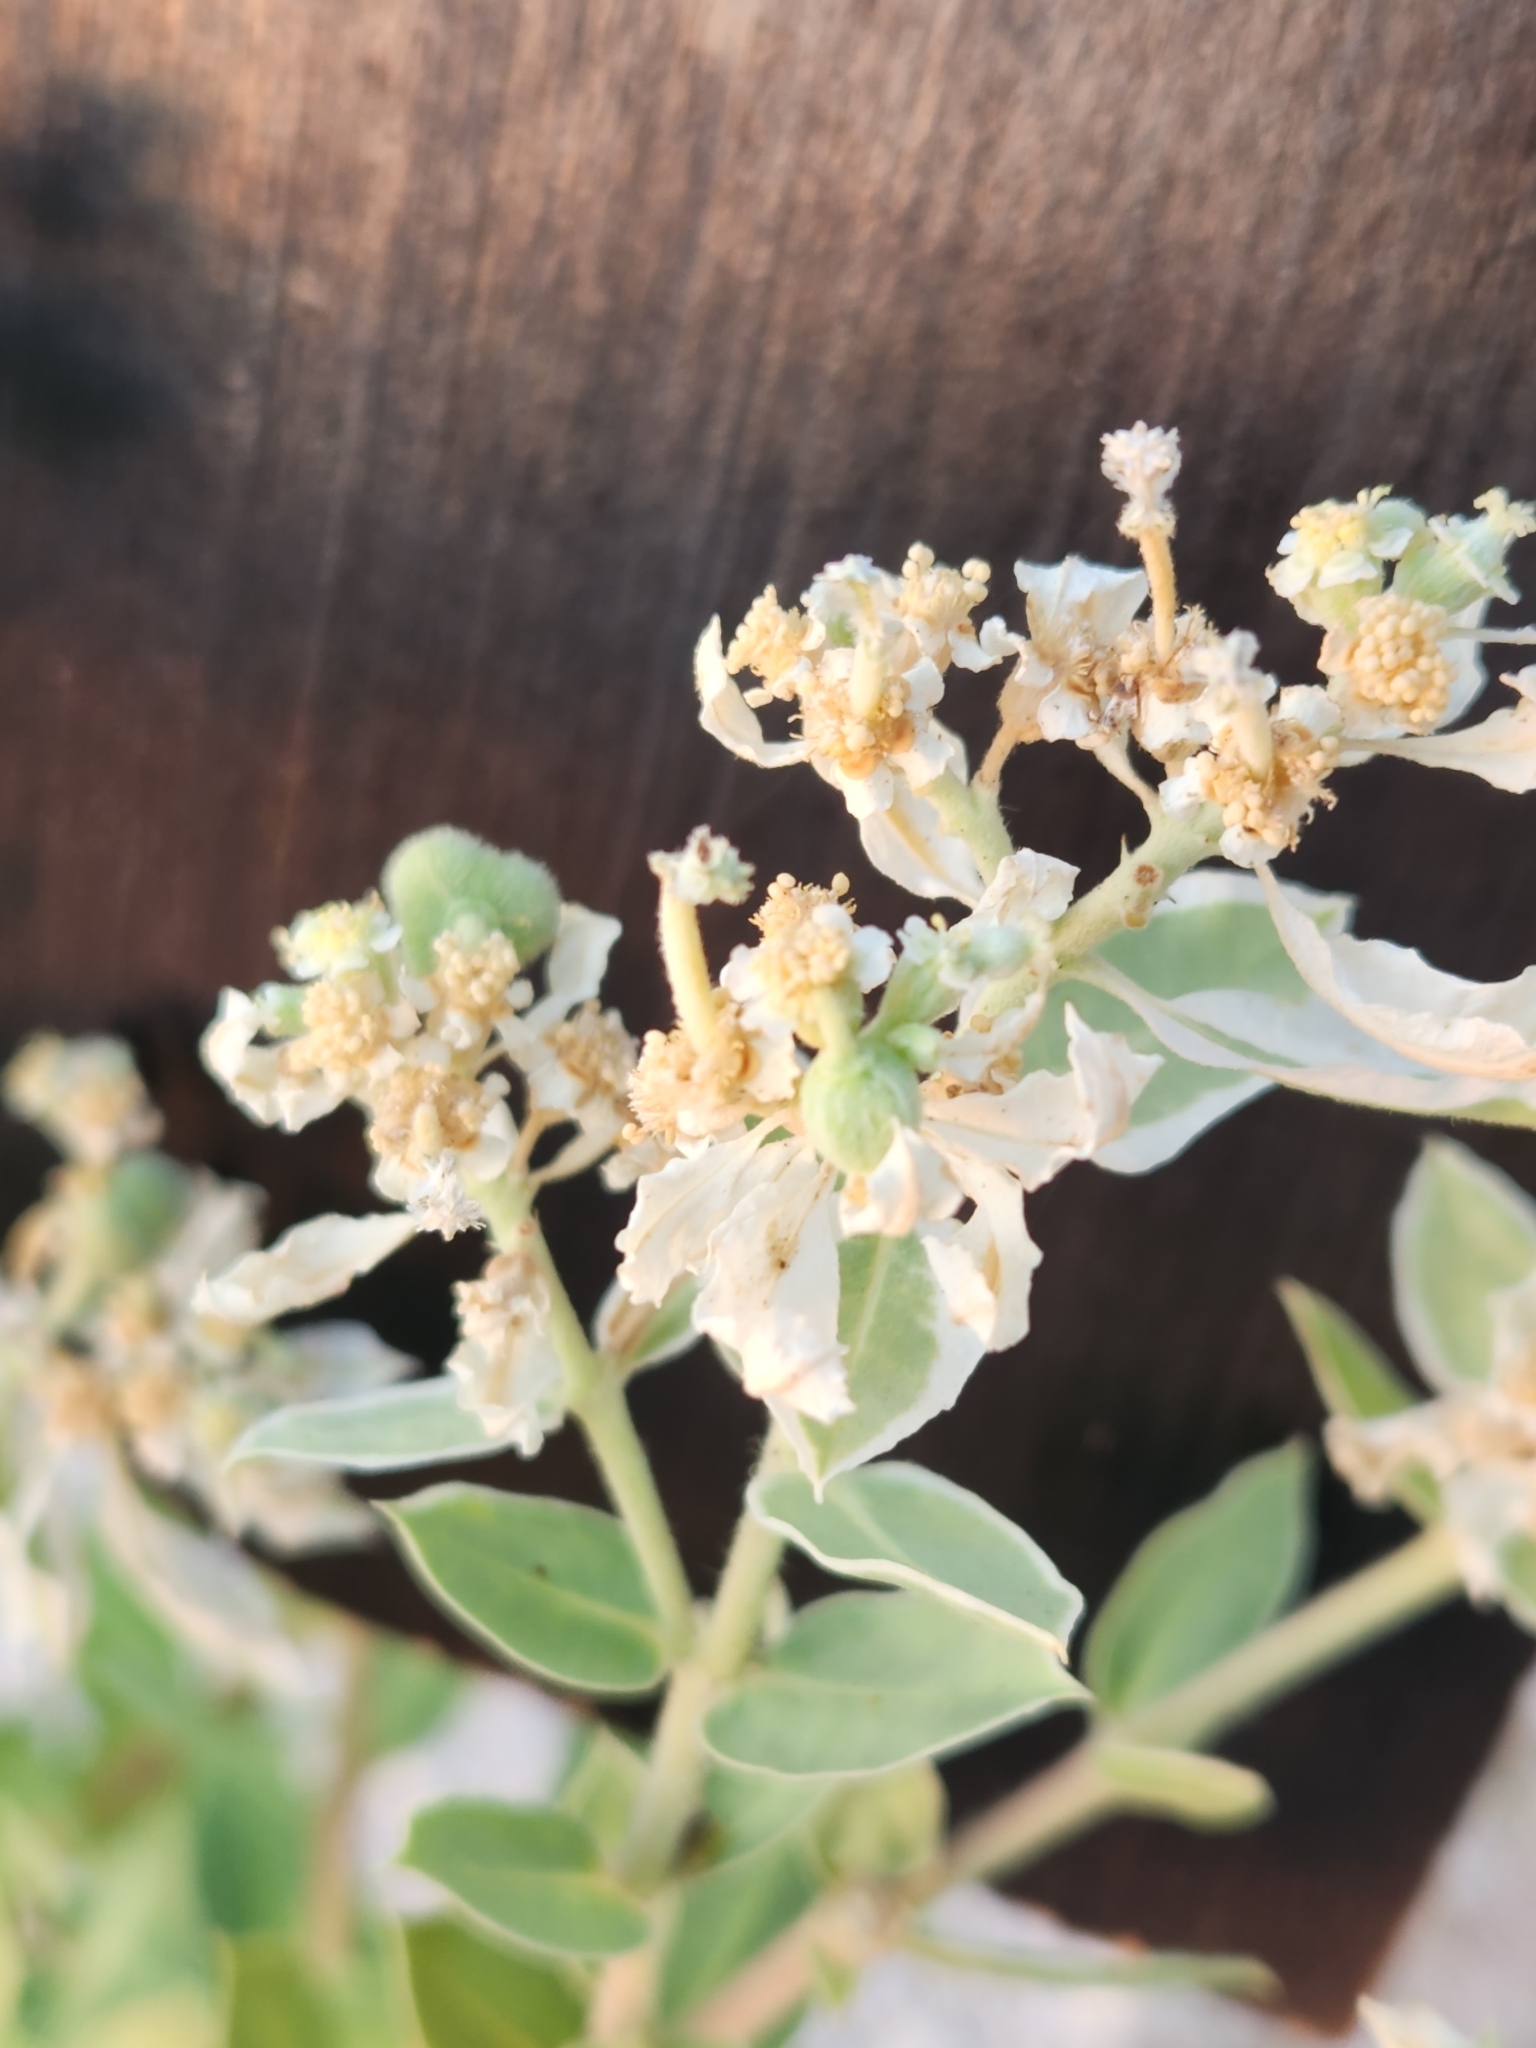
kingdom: Plantae
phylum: Tracheophyta
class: Magnoliopsida
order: Malpighiales
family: Euphorbiaceae
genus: Euphorbia
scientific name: Euphorbia marginata
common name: Ghostweed
